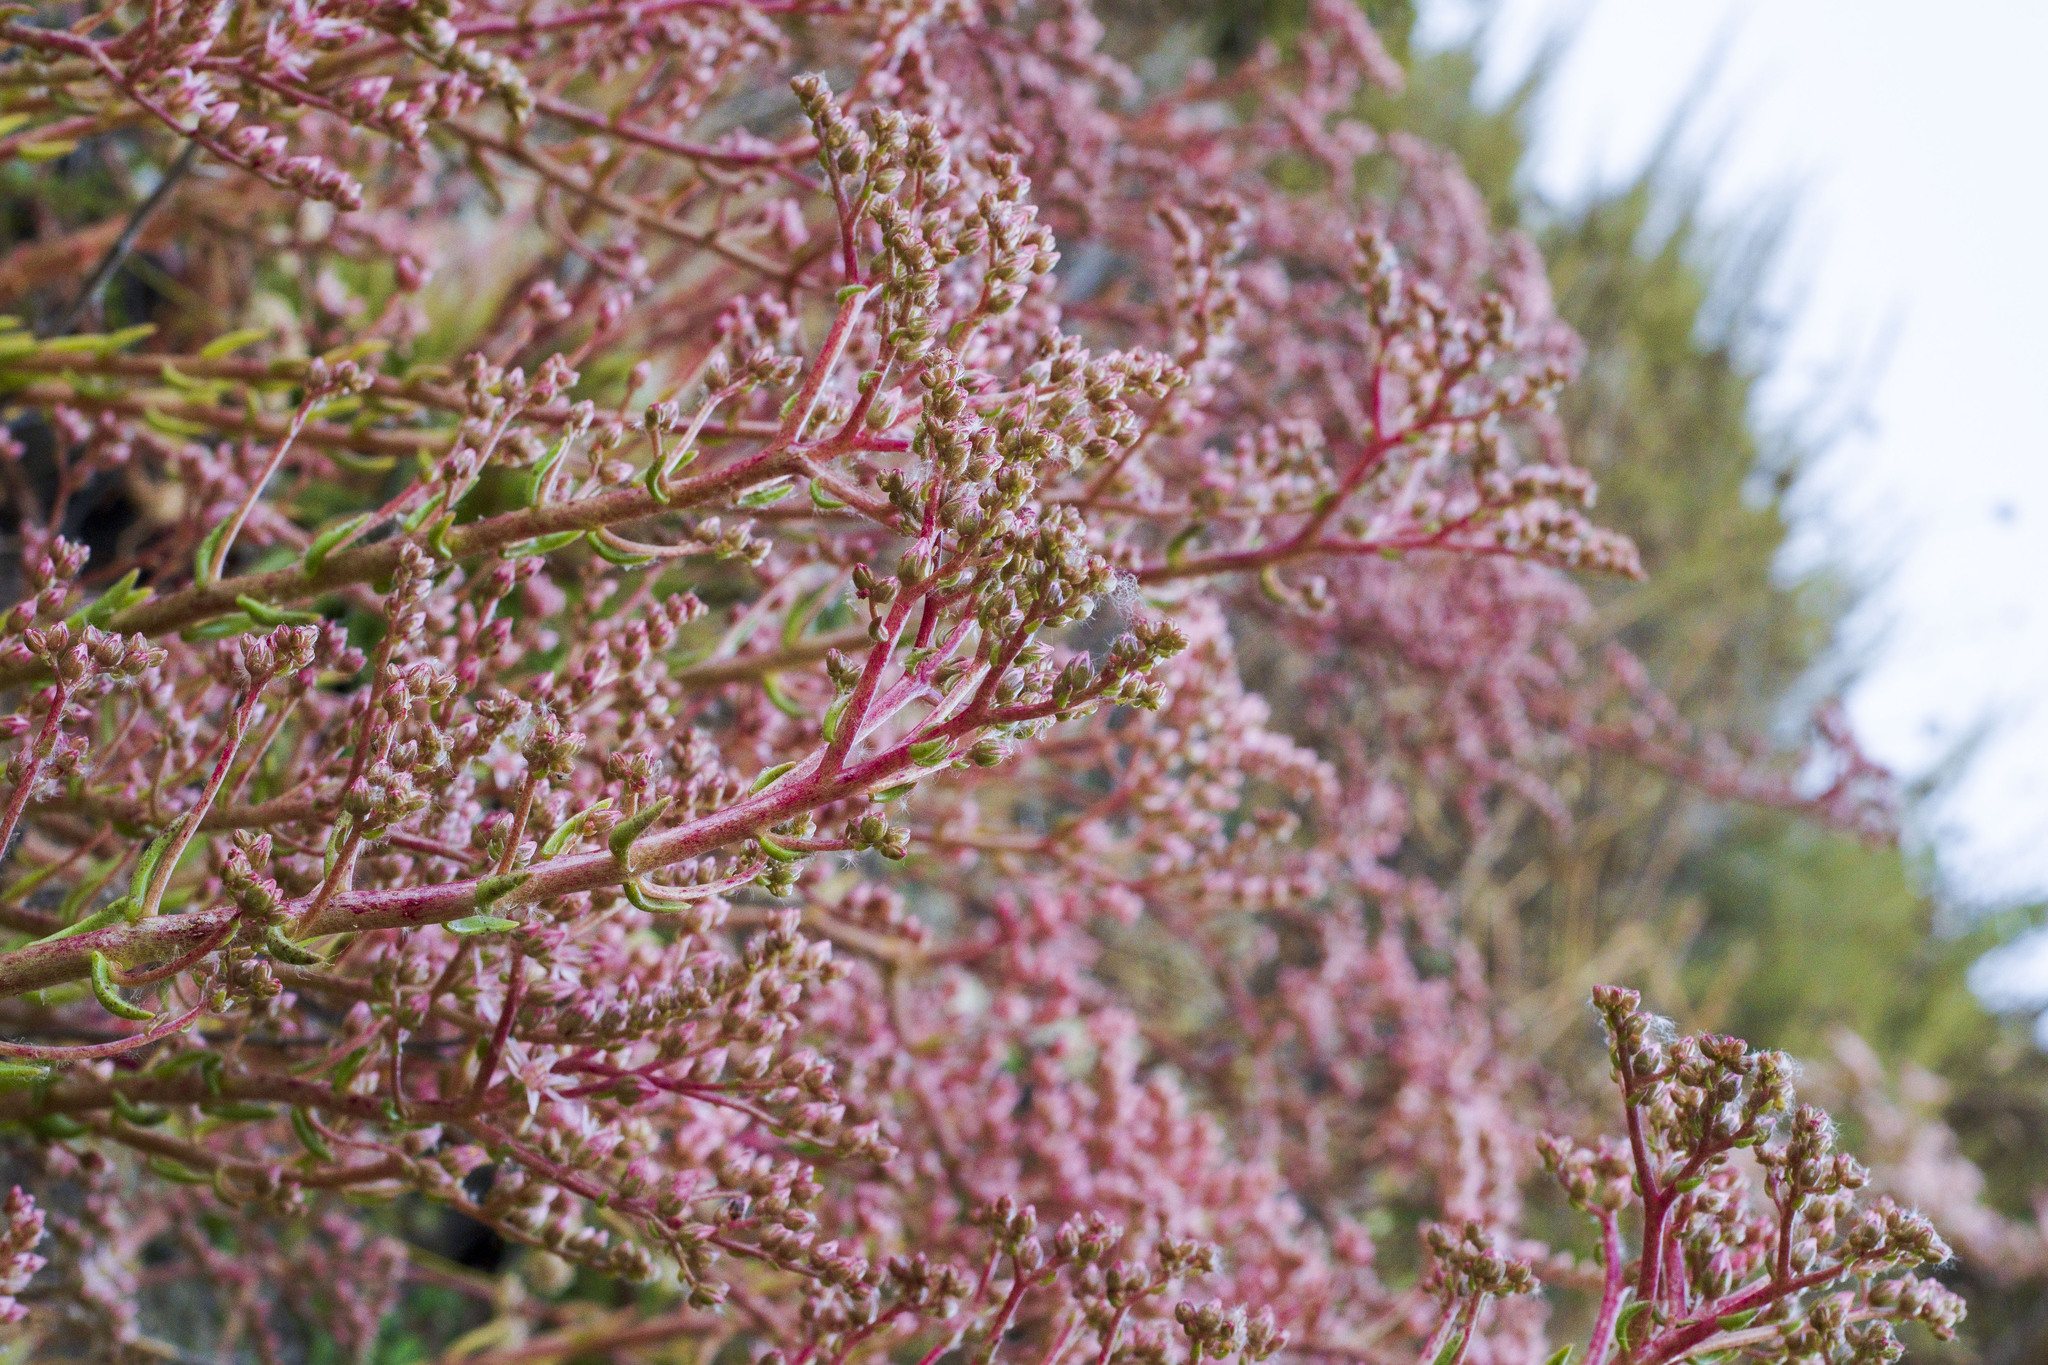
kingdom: Plantae
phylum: Tracheophyta
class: Magnoliopsida
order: Saxifragales
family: Crassulaceae
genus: Dudleya
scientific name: Dudleya viscida
